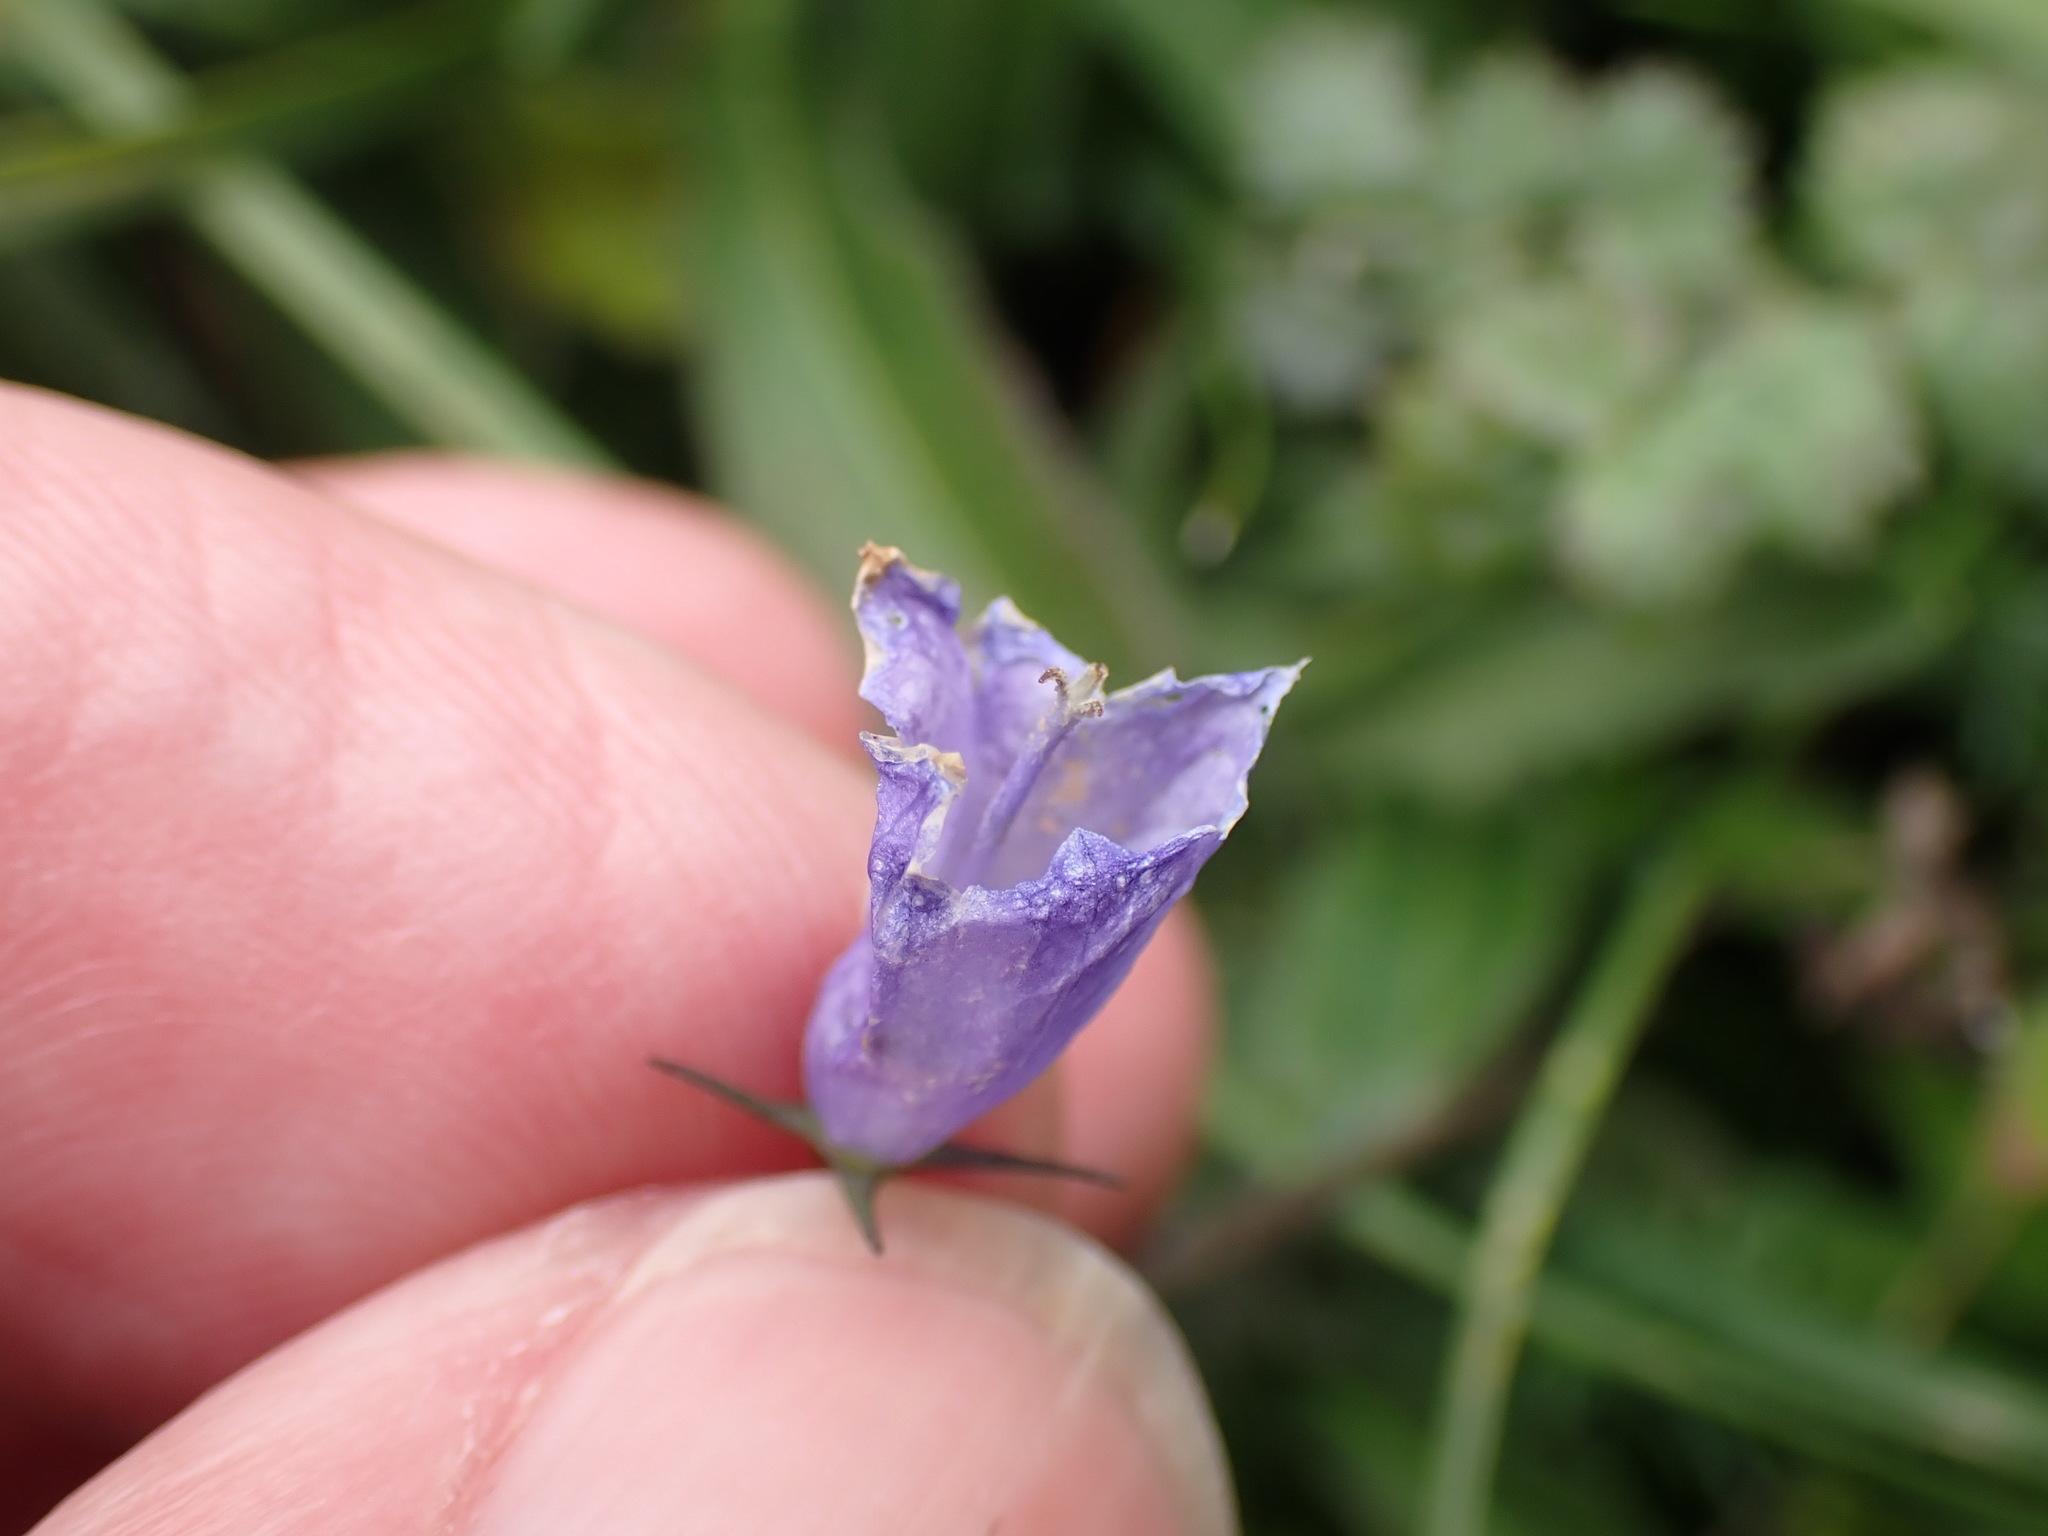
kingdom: Plantae
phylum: Tracheophyta
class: Magnoliopsida
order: Asterales
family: Campanulaceae
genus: Campanula
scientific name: Campanula rotundifolia
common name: Harebell
